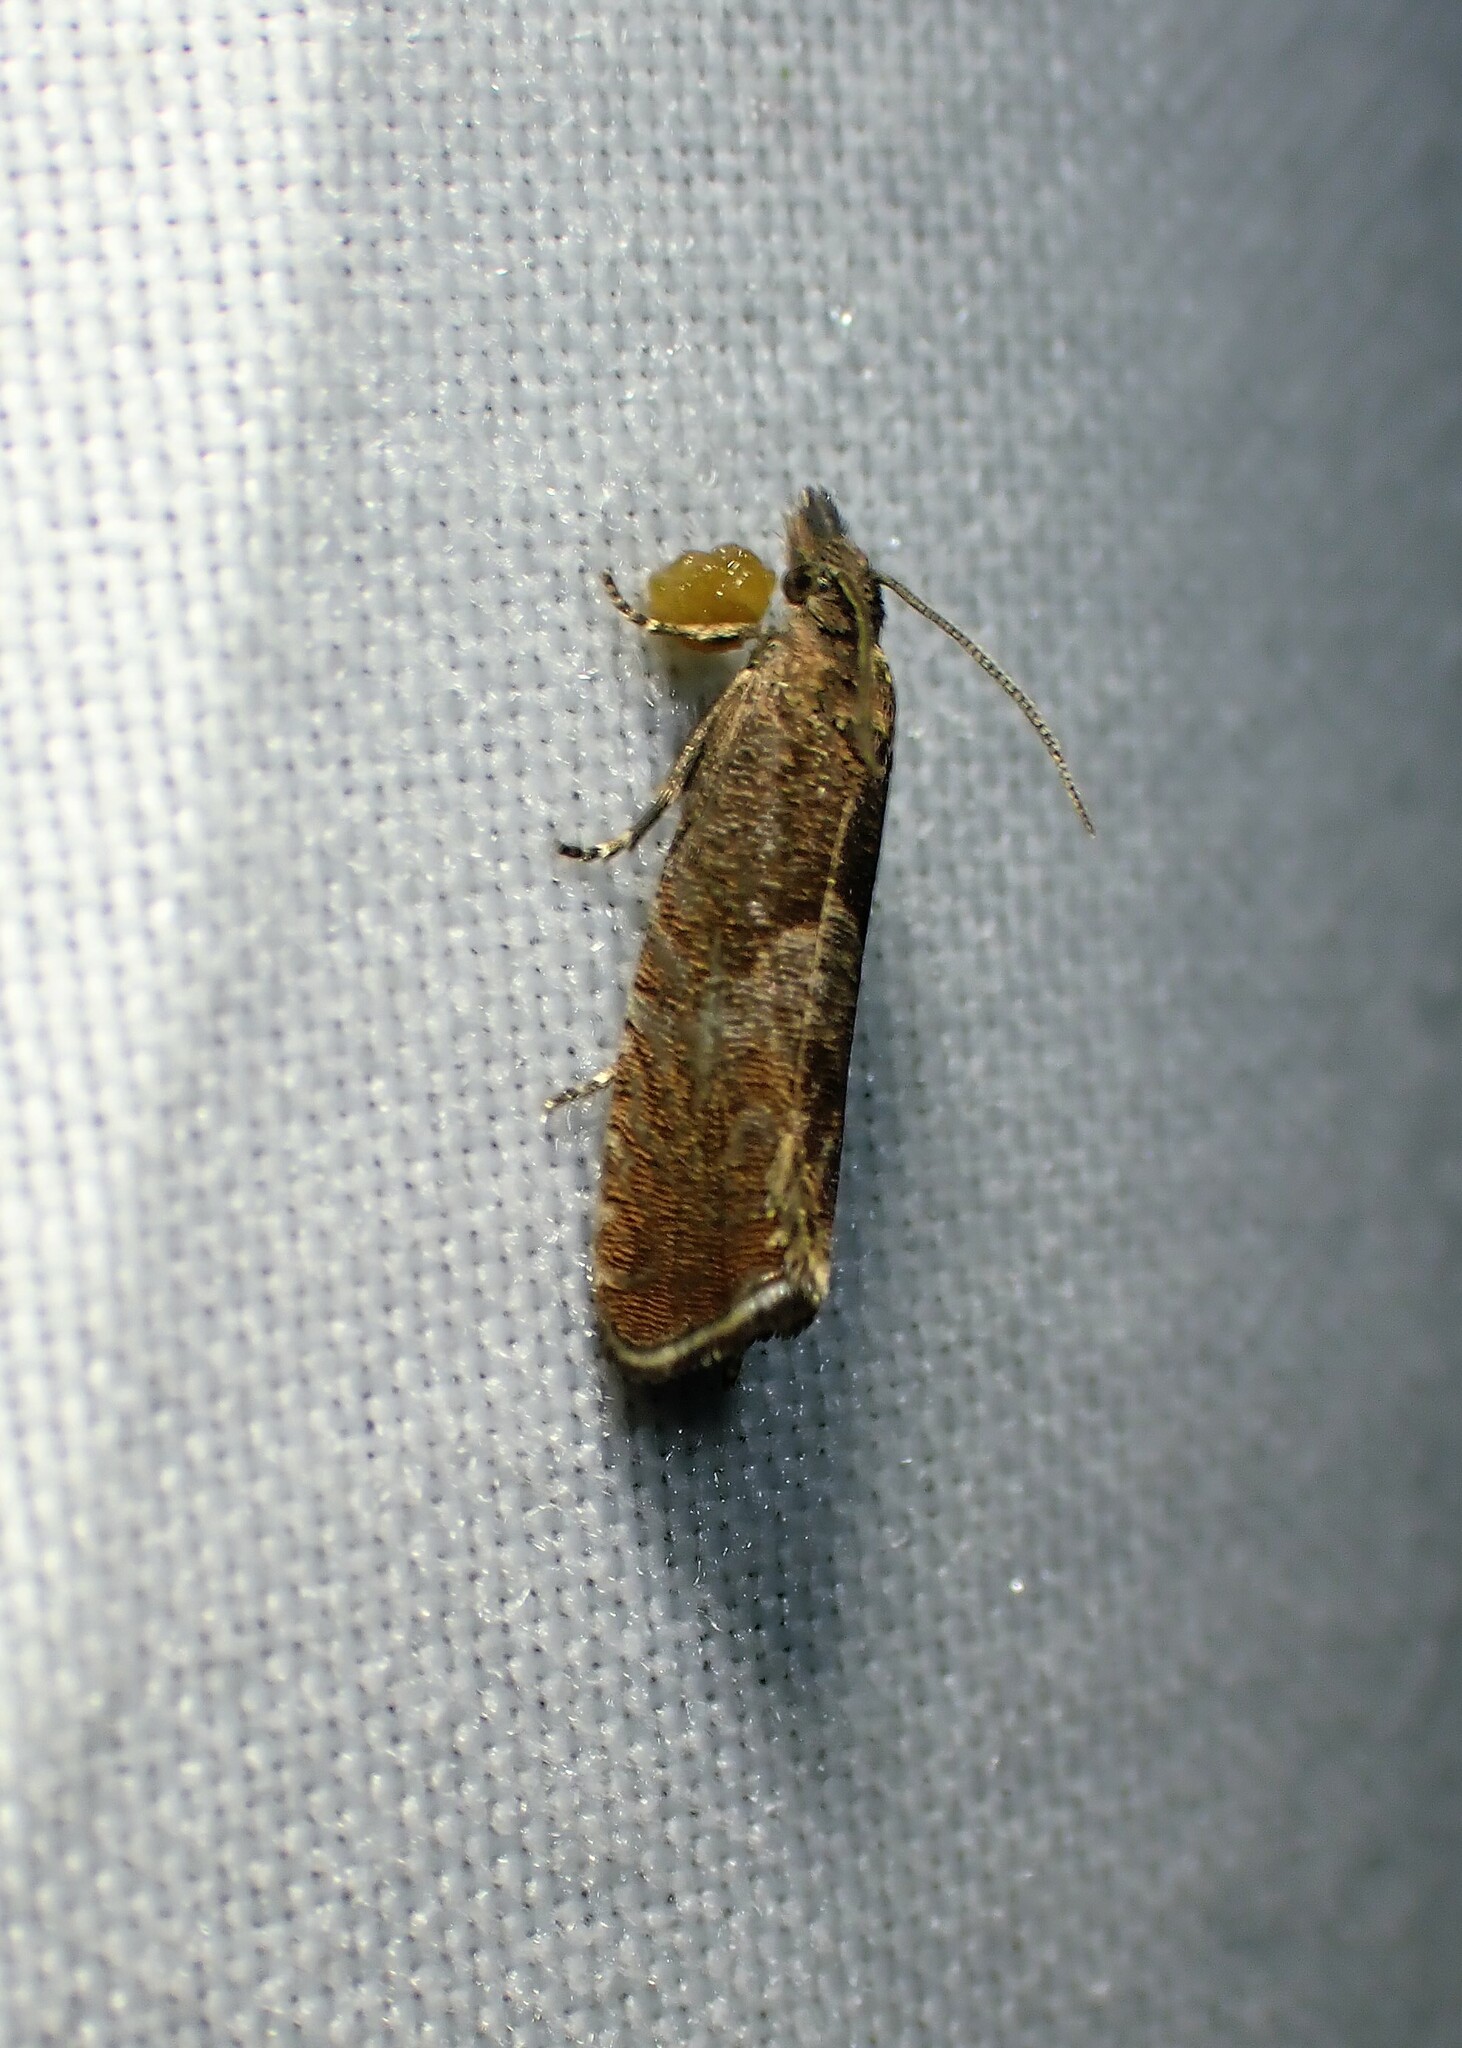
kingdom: Animalia
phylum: Arthropoda
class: Insecta
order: Lepidoptera
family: Tortricidae
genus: Dichrorampha
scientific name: Dichrorampha acuminatana
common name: Sharp-winged drill
